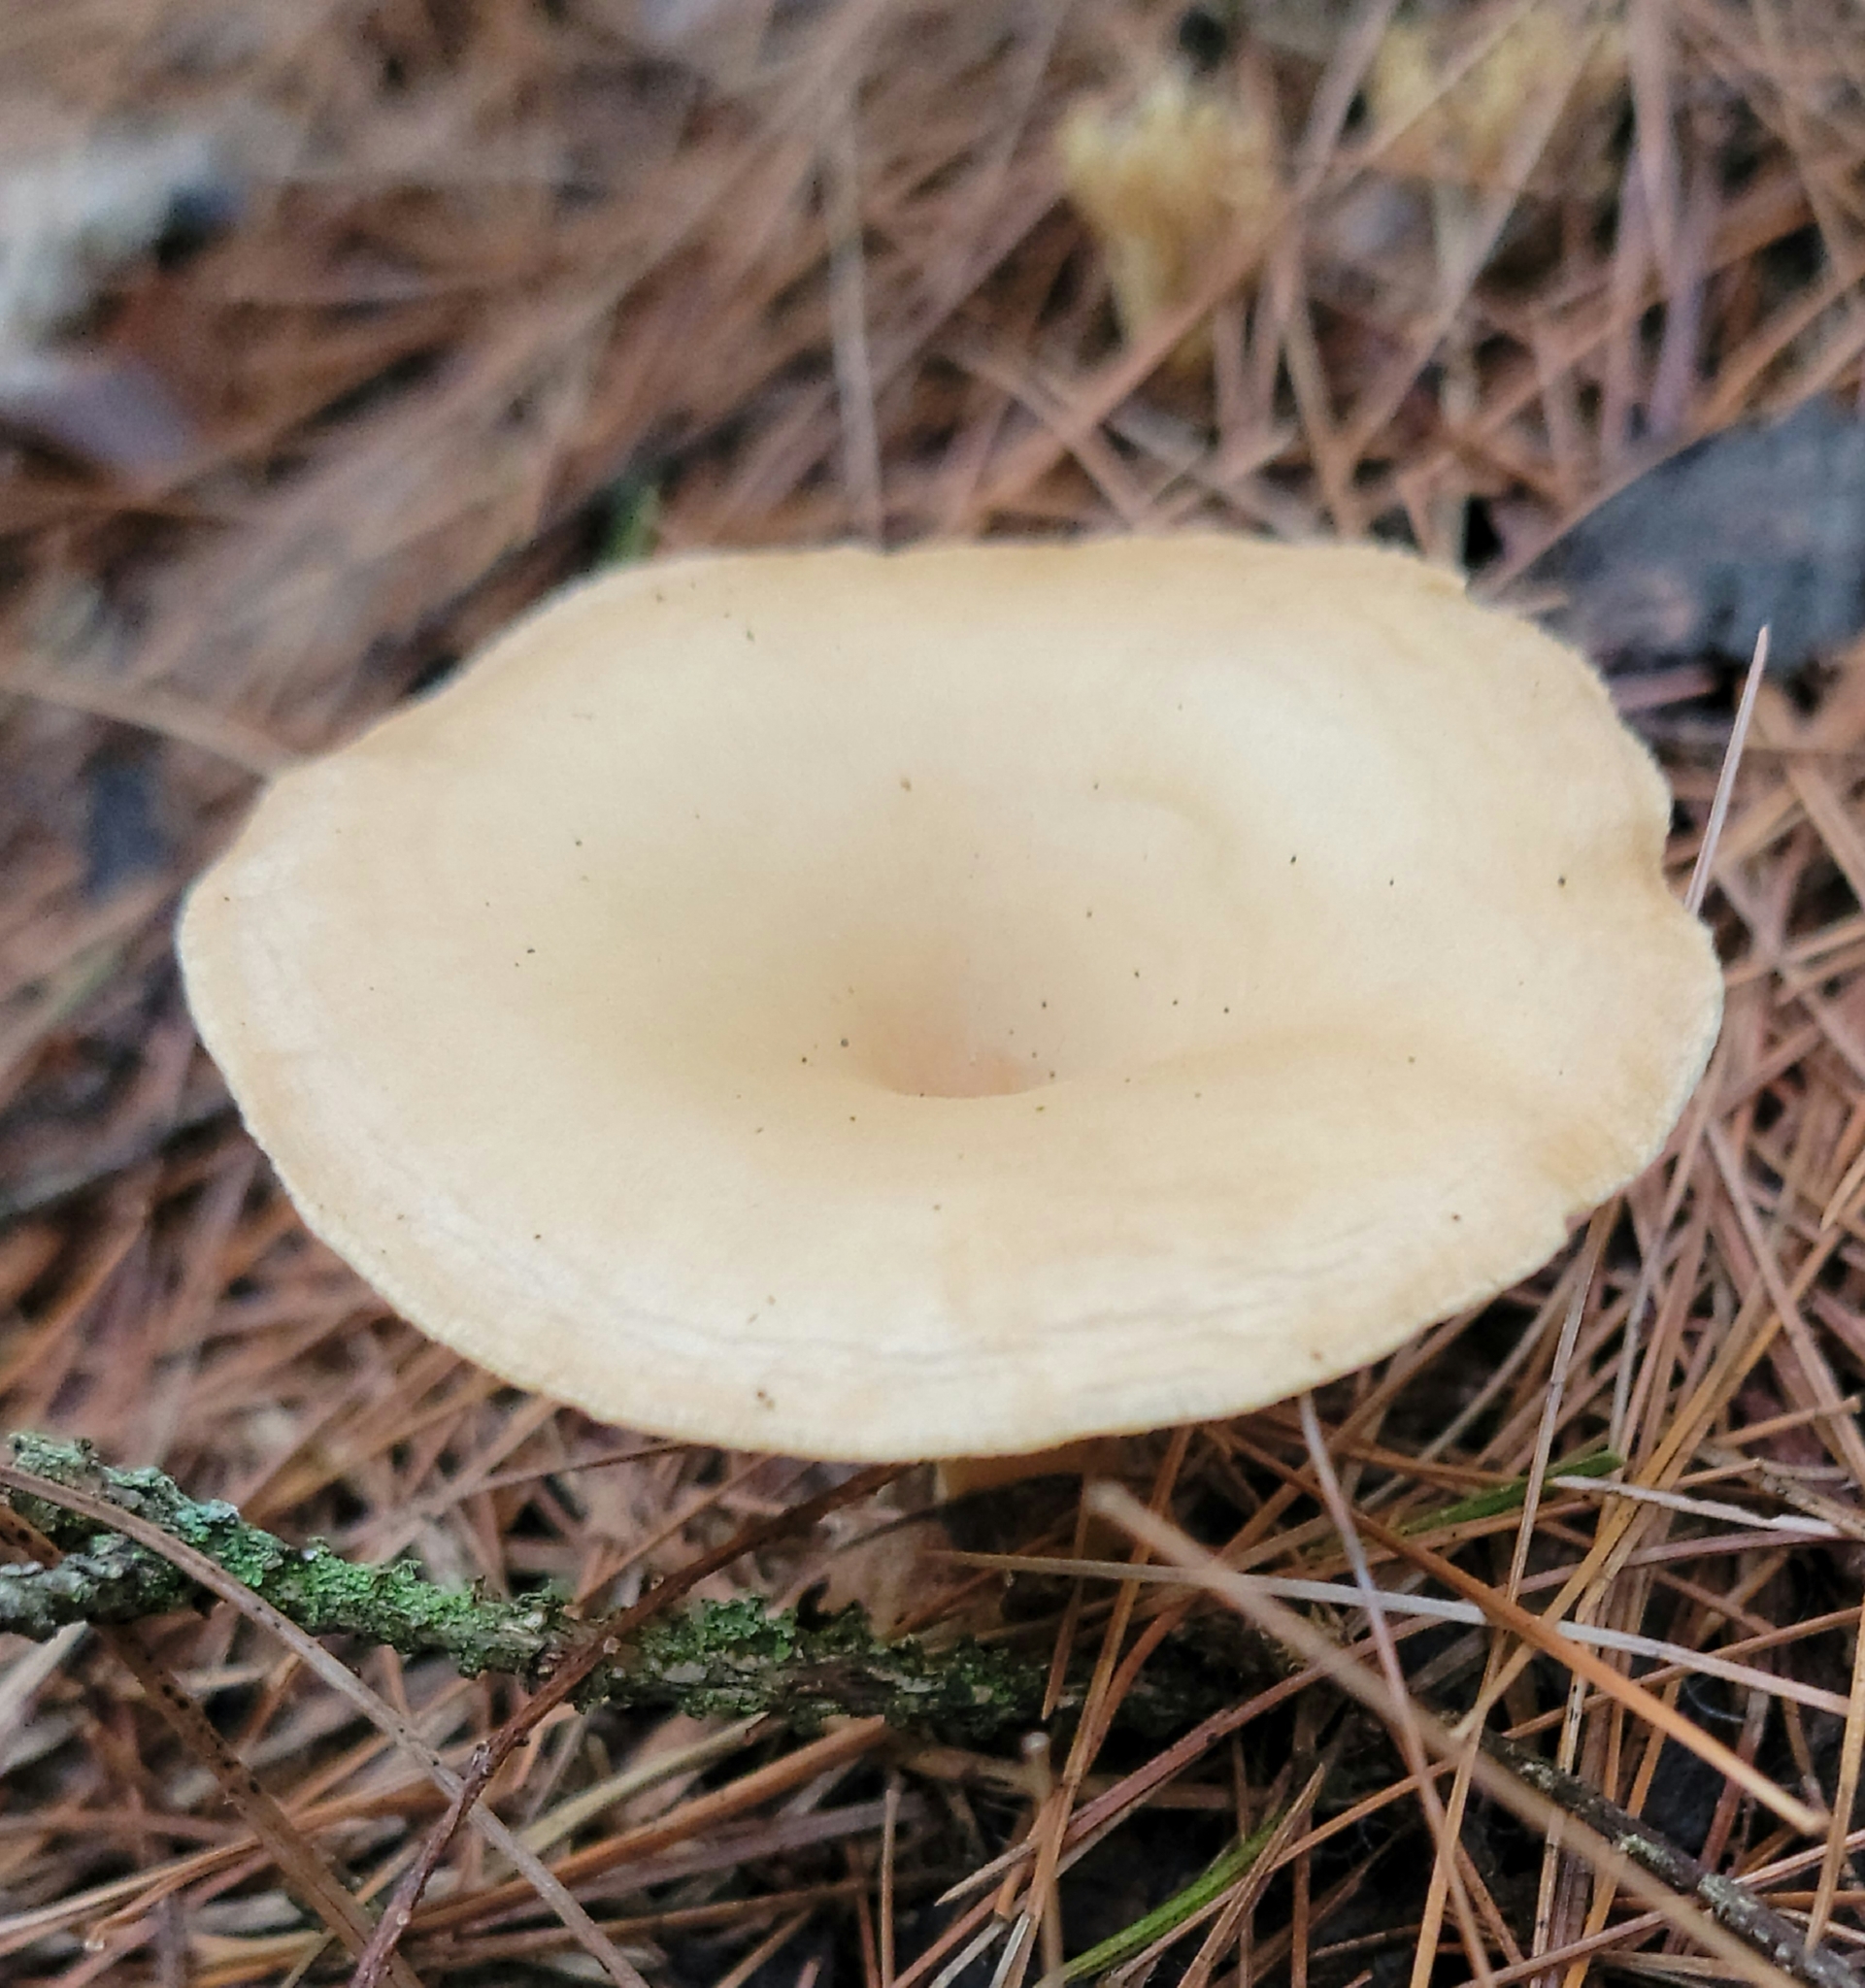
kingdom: Fungi
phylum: Basidiomycota
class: Agaricomycetes
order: Agaricales
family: Tricholomataceae
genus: Infundibulicybe
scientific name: Infundibulicybe gibba
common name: Common funnel
